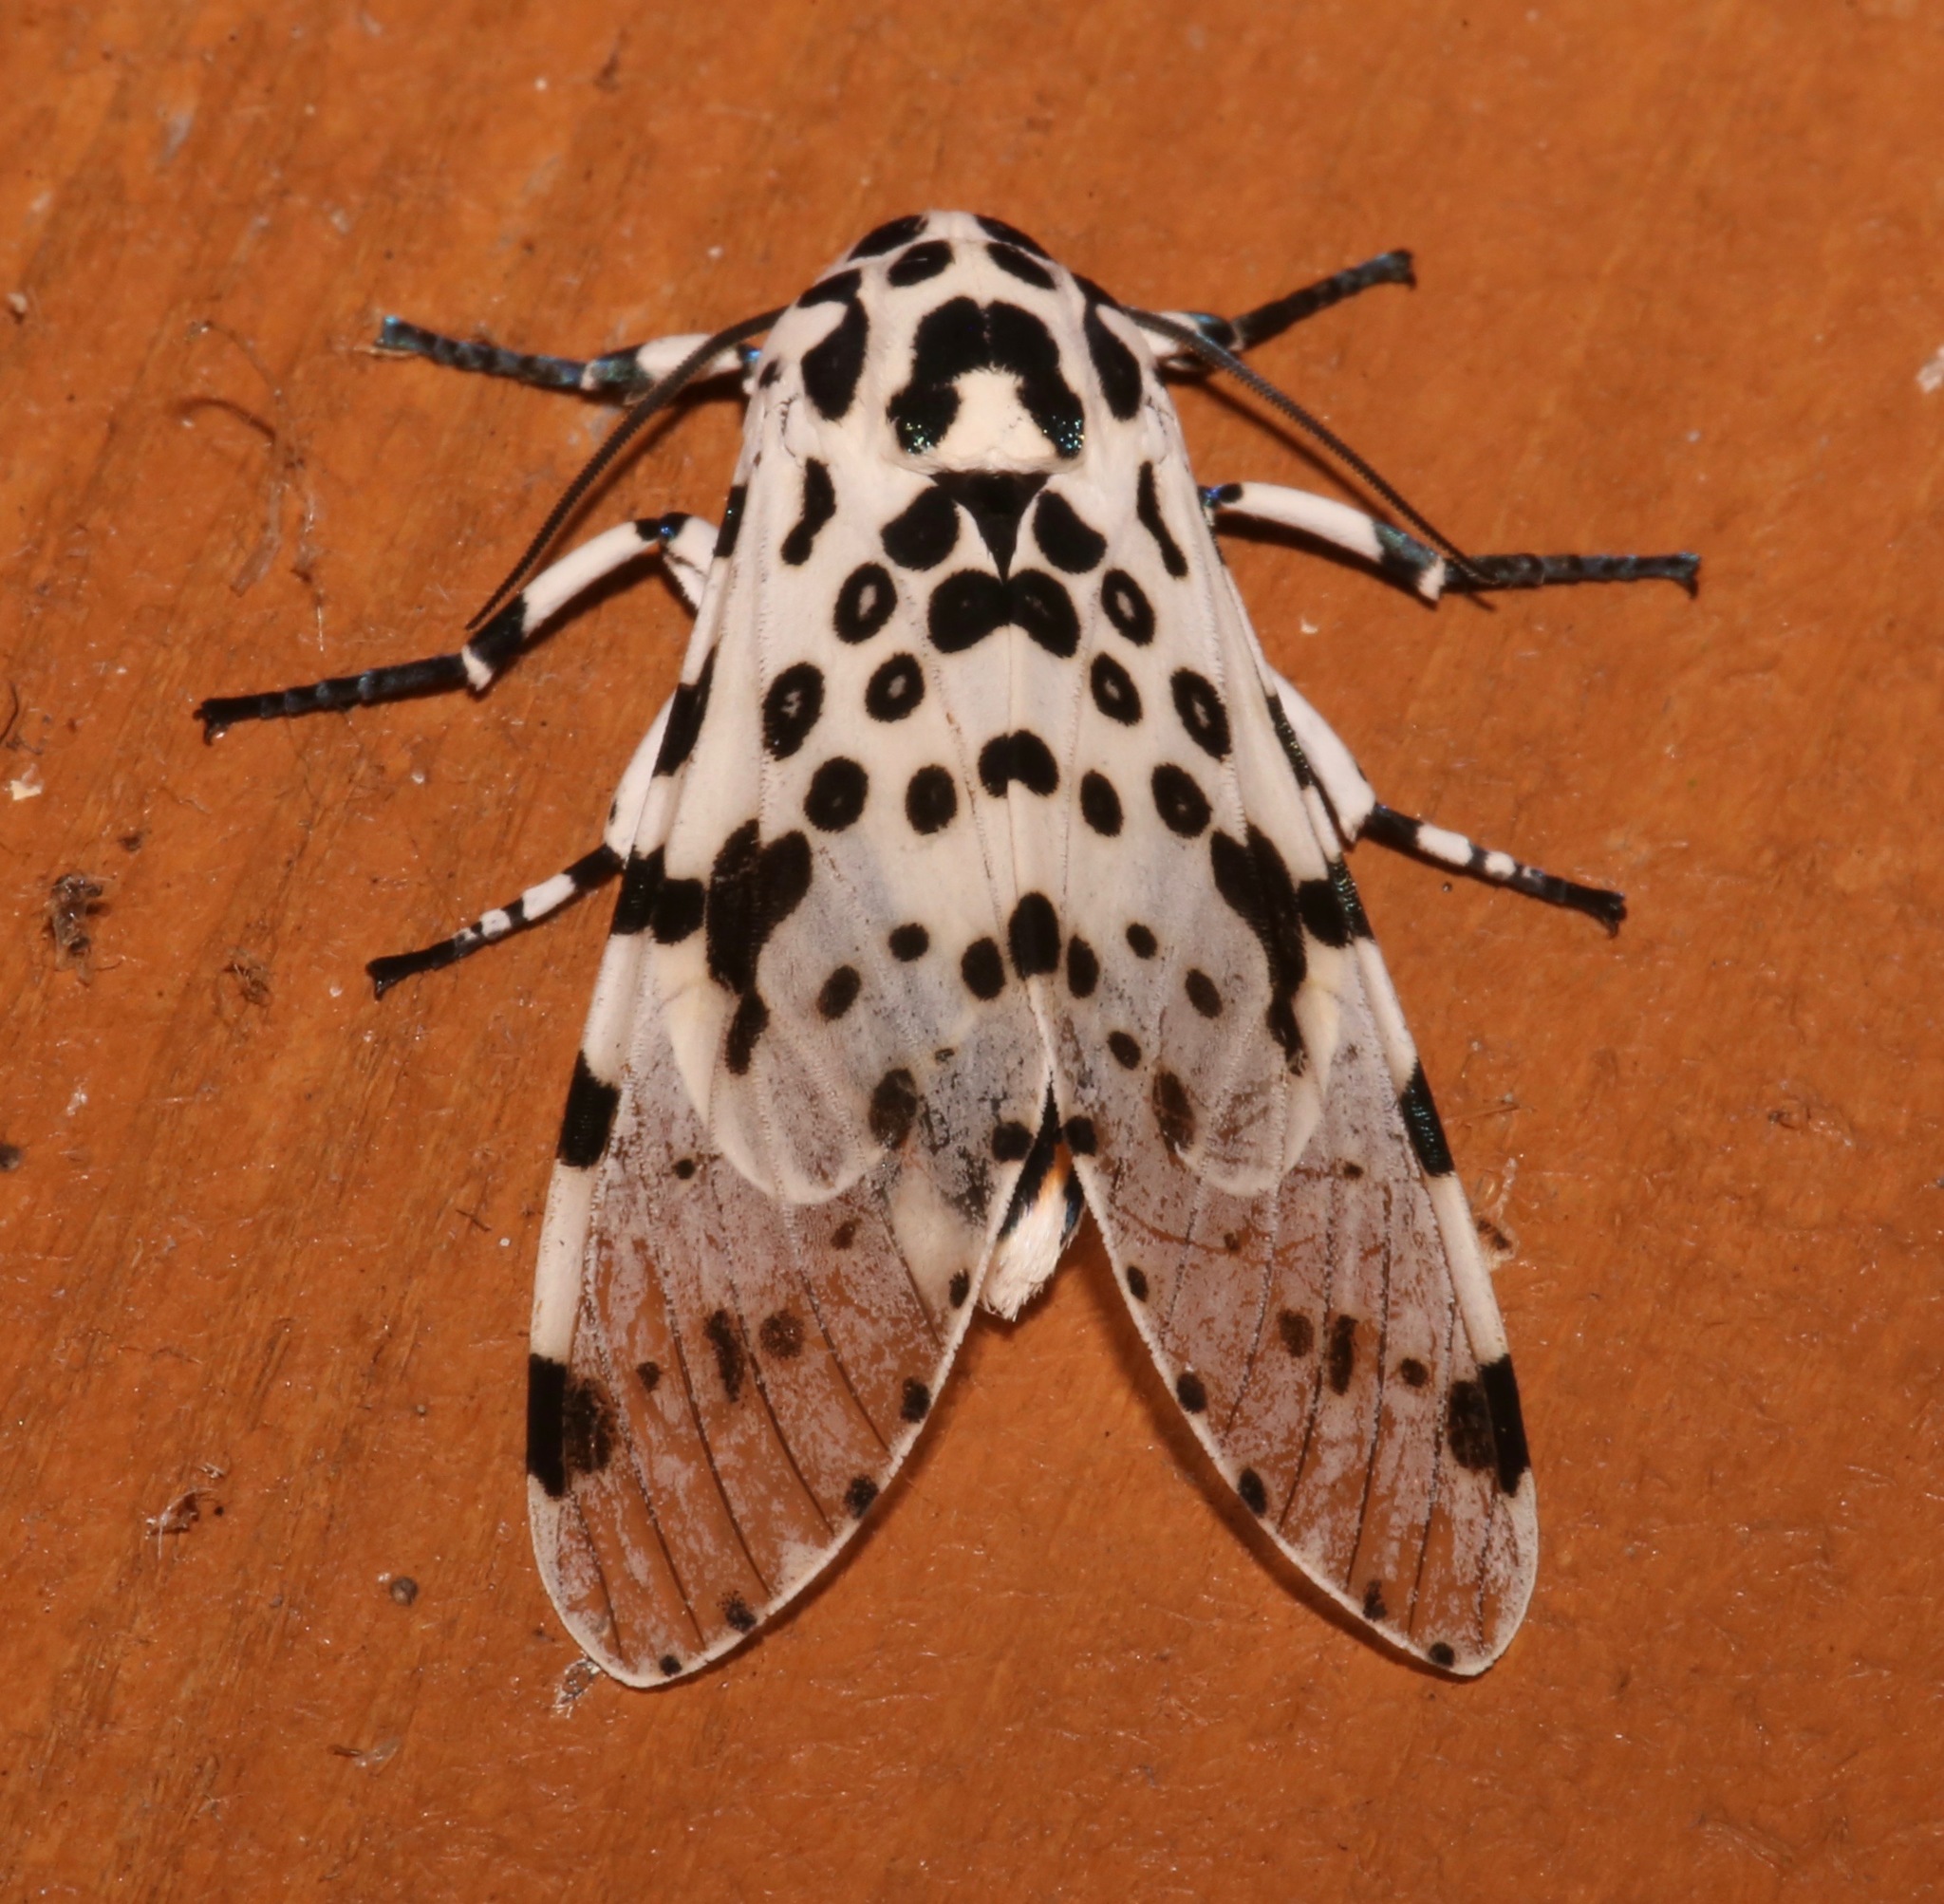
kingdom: Animalia
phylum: Arthropoda
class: Insecta
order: Lepidoptera
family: Erebidae
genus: Hypercompe
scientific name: Hypercompe scribonia
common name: Giant leopard moth
